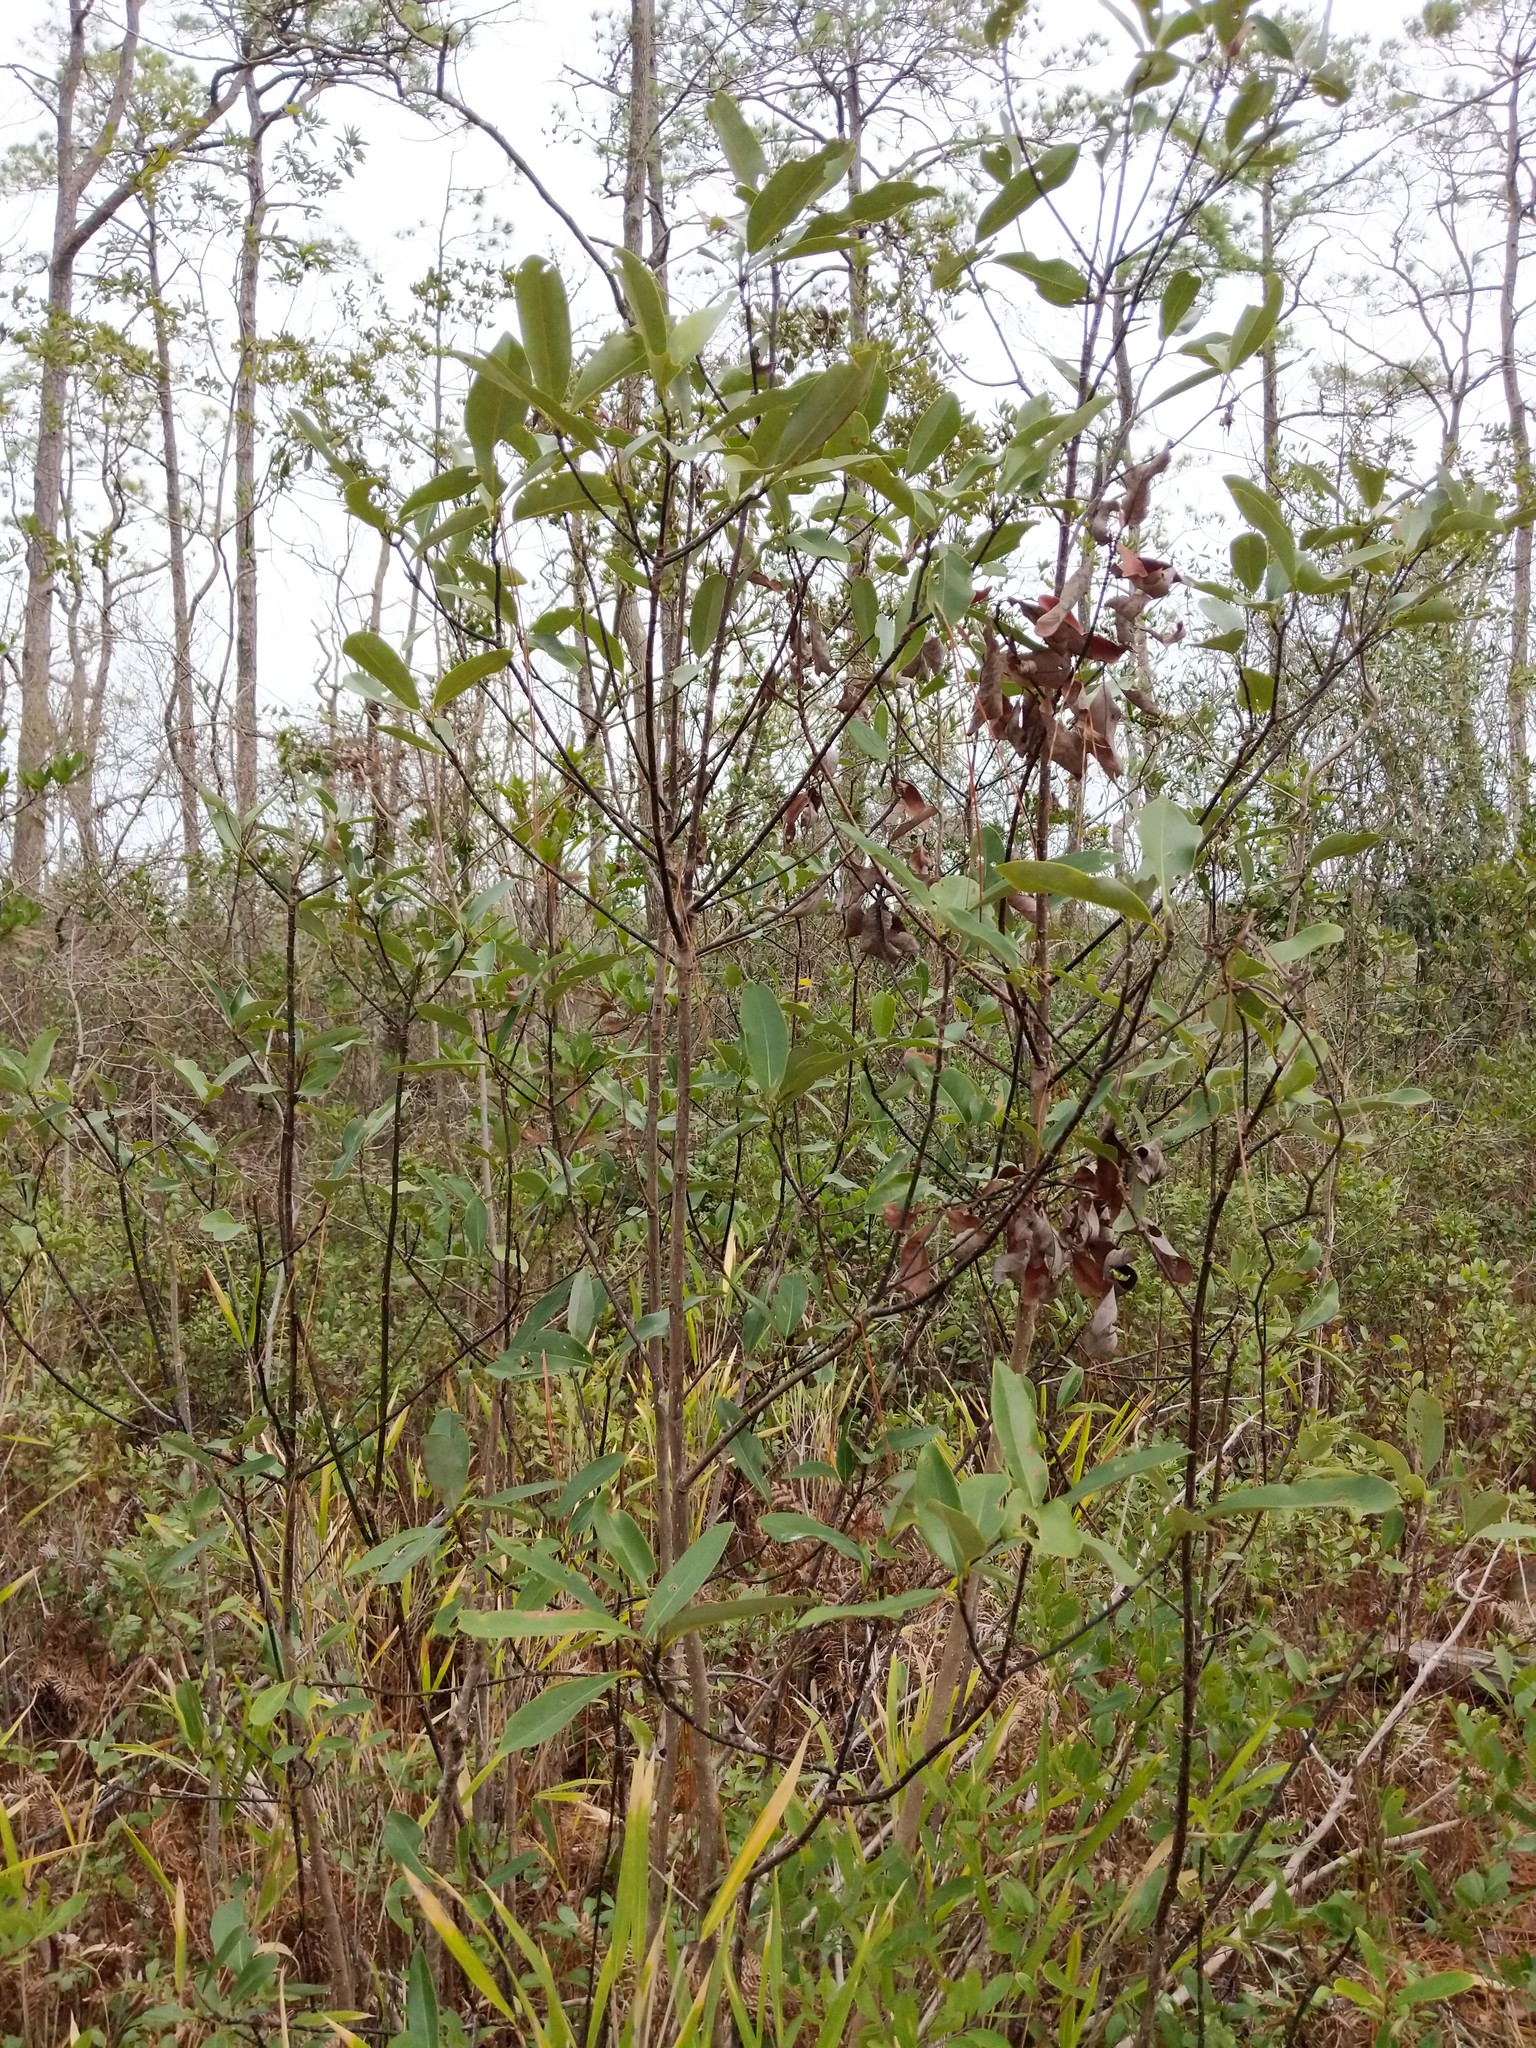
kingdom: Plantae
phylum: Tracheophyta
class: Magnoliopsida
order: Magnoliales
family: Magnoliaceae
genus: Magnolia
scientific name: Magnolia virginiana
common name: Swamp bay
